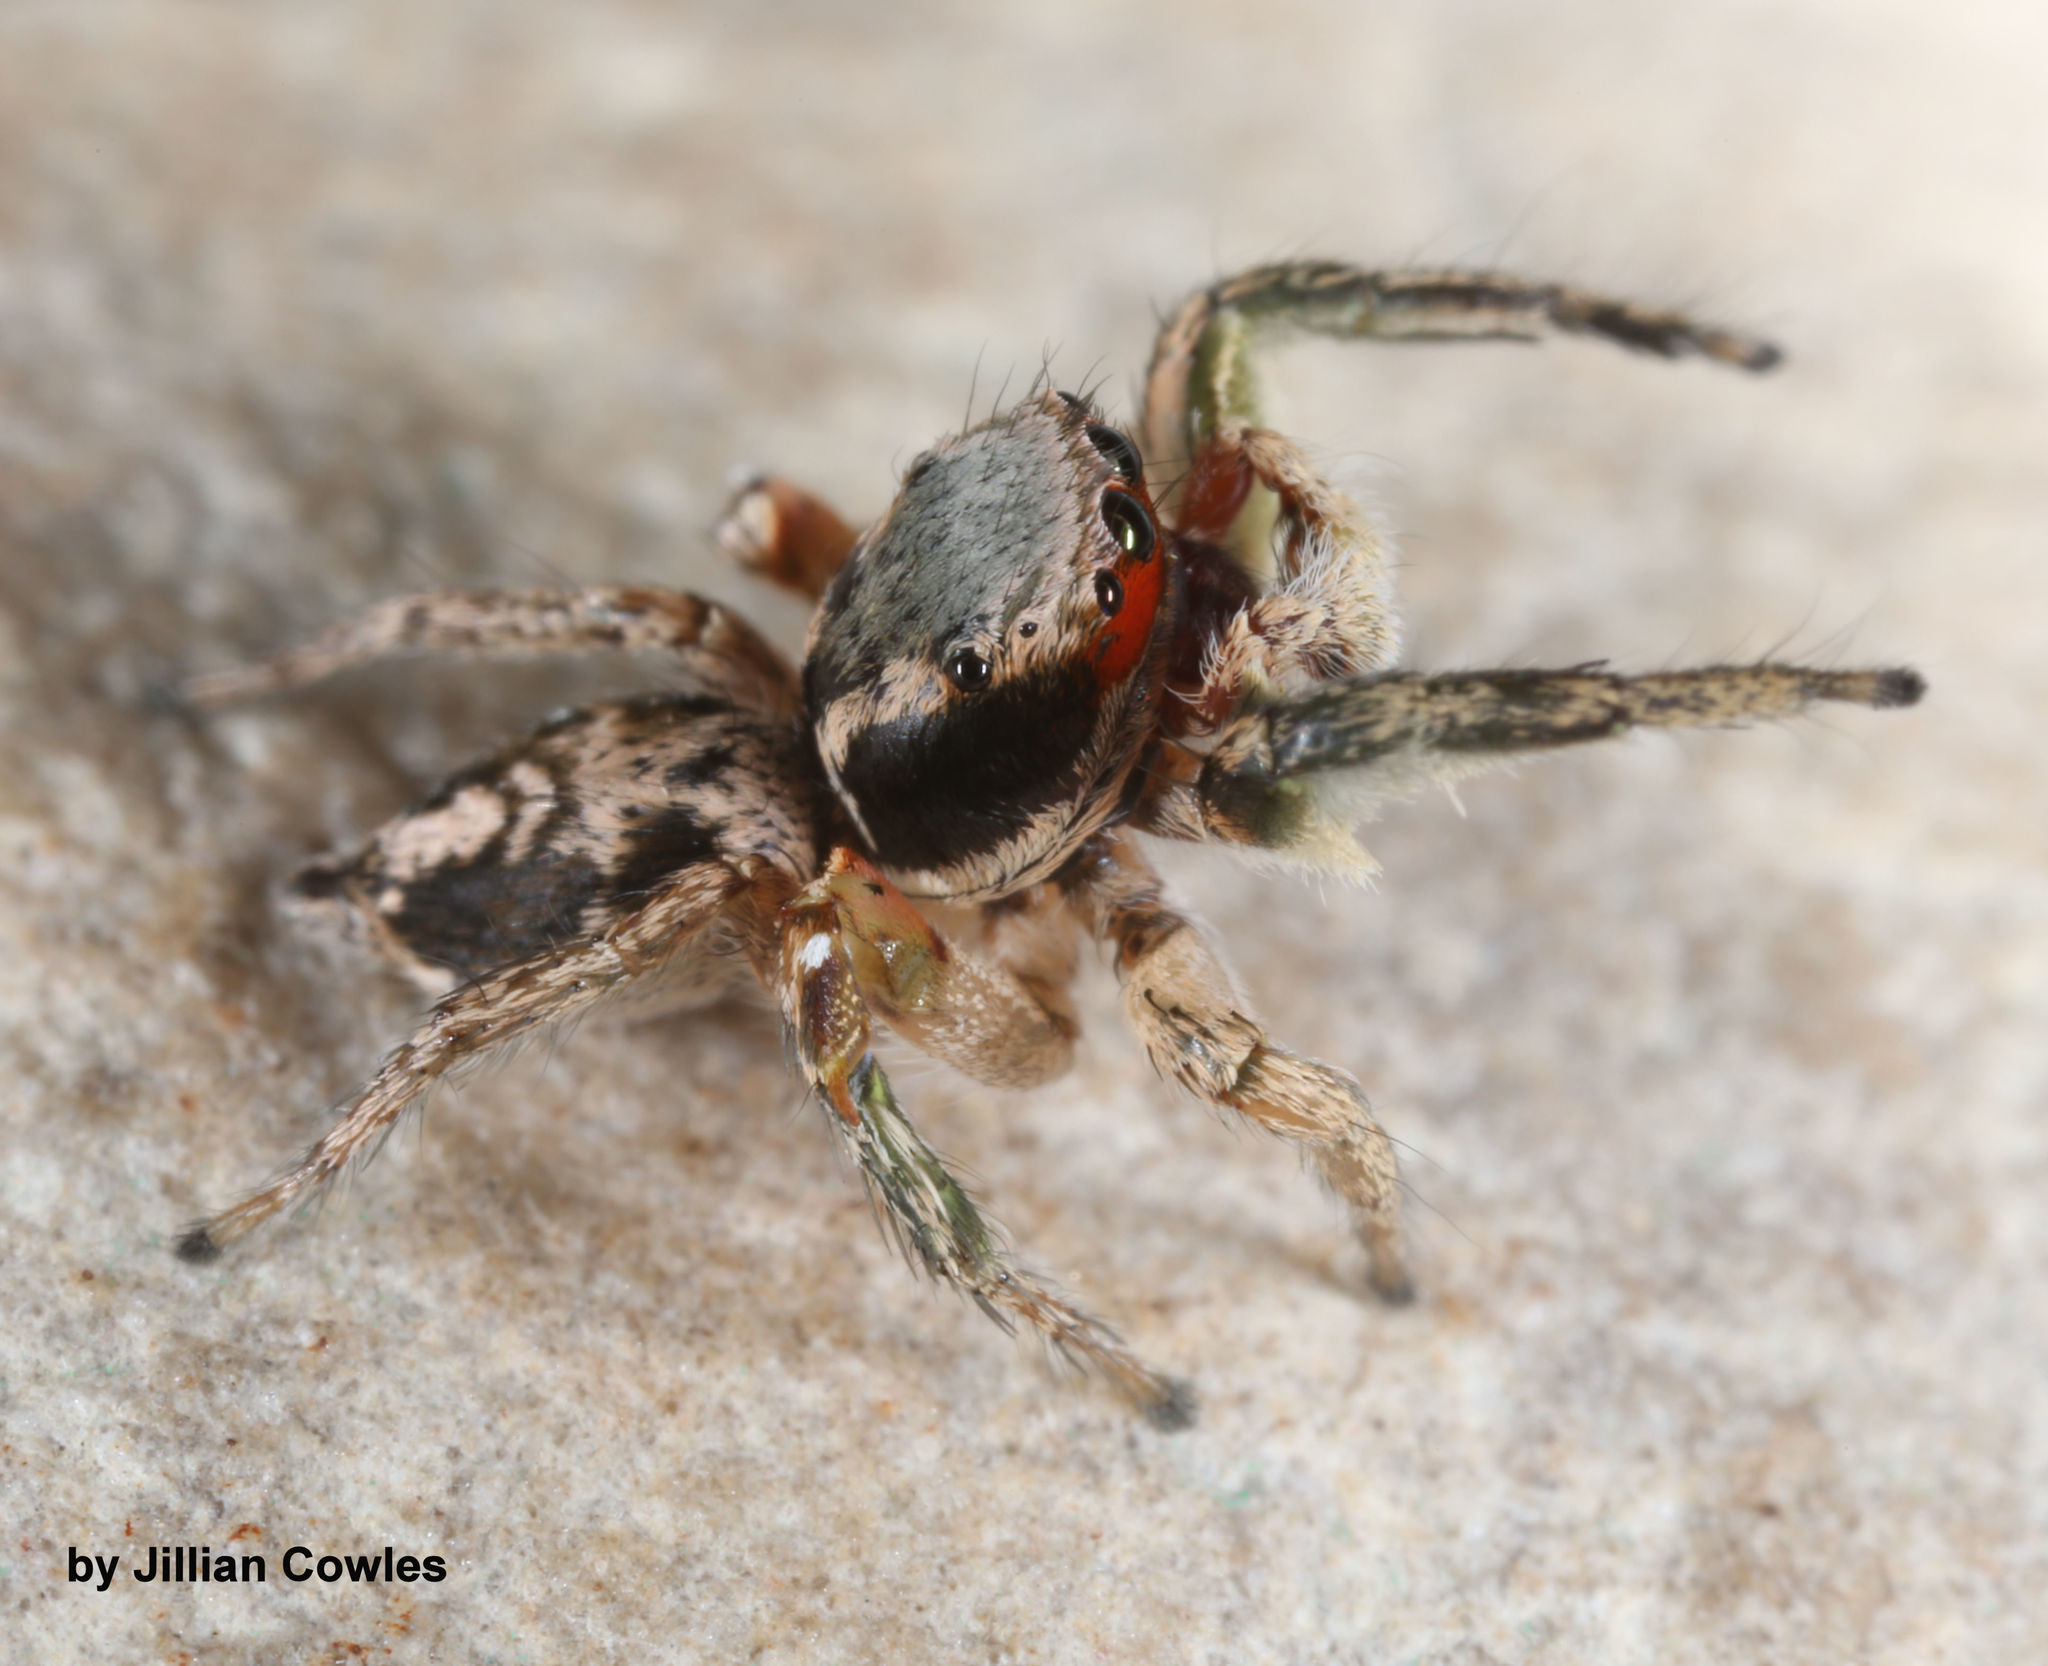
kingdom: Animalia
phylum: Arthropoda
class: Arachnida
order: Araneae
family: Salticidae
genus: Habronattus
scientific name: Habronattus pyrrithrix
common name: Jumping spider
